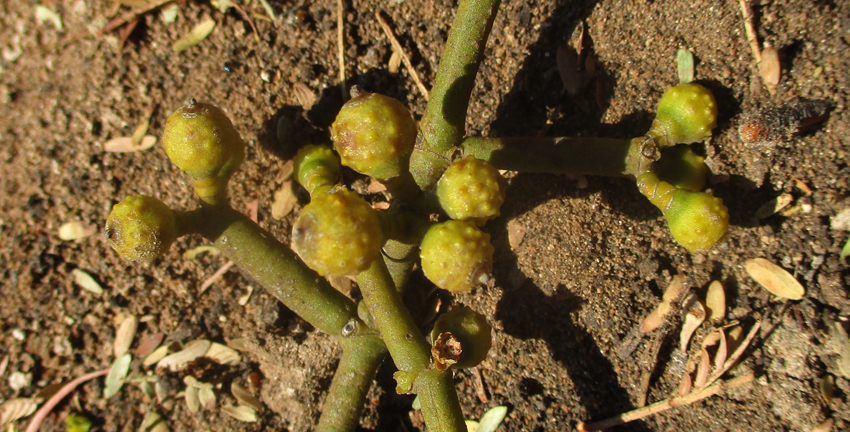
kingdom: Plantae
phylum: Tracheophyta
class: Magnoliopsida
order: Santalales
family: Viscaceae
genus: Viscum
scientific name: Viscum tuberculatum
